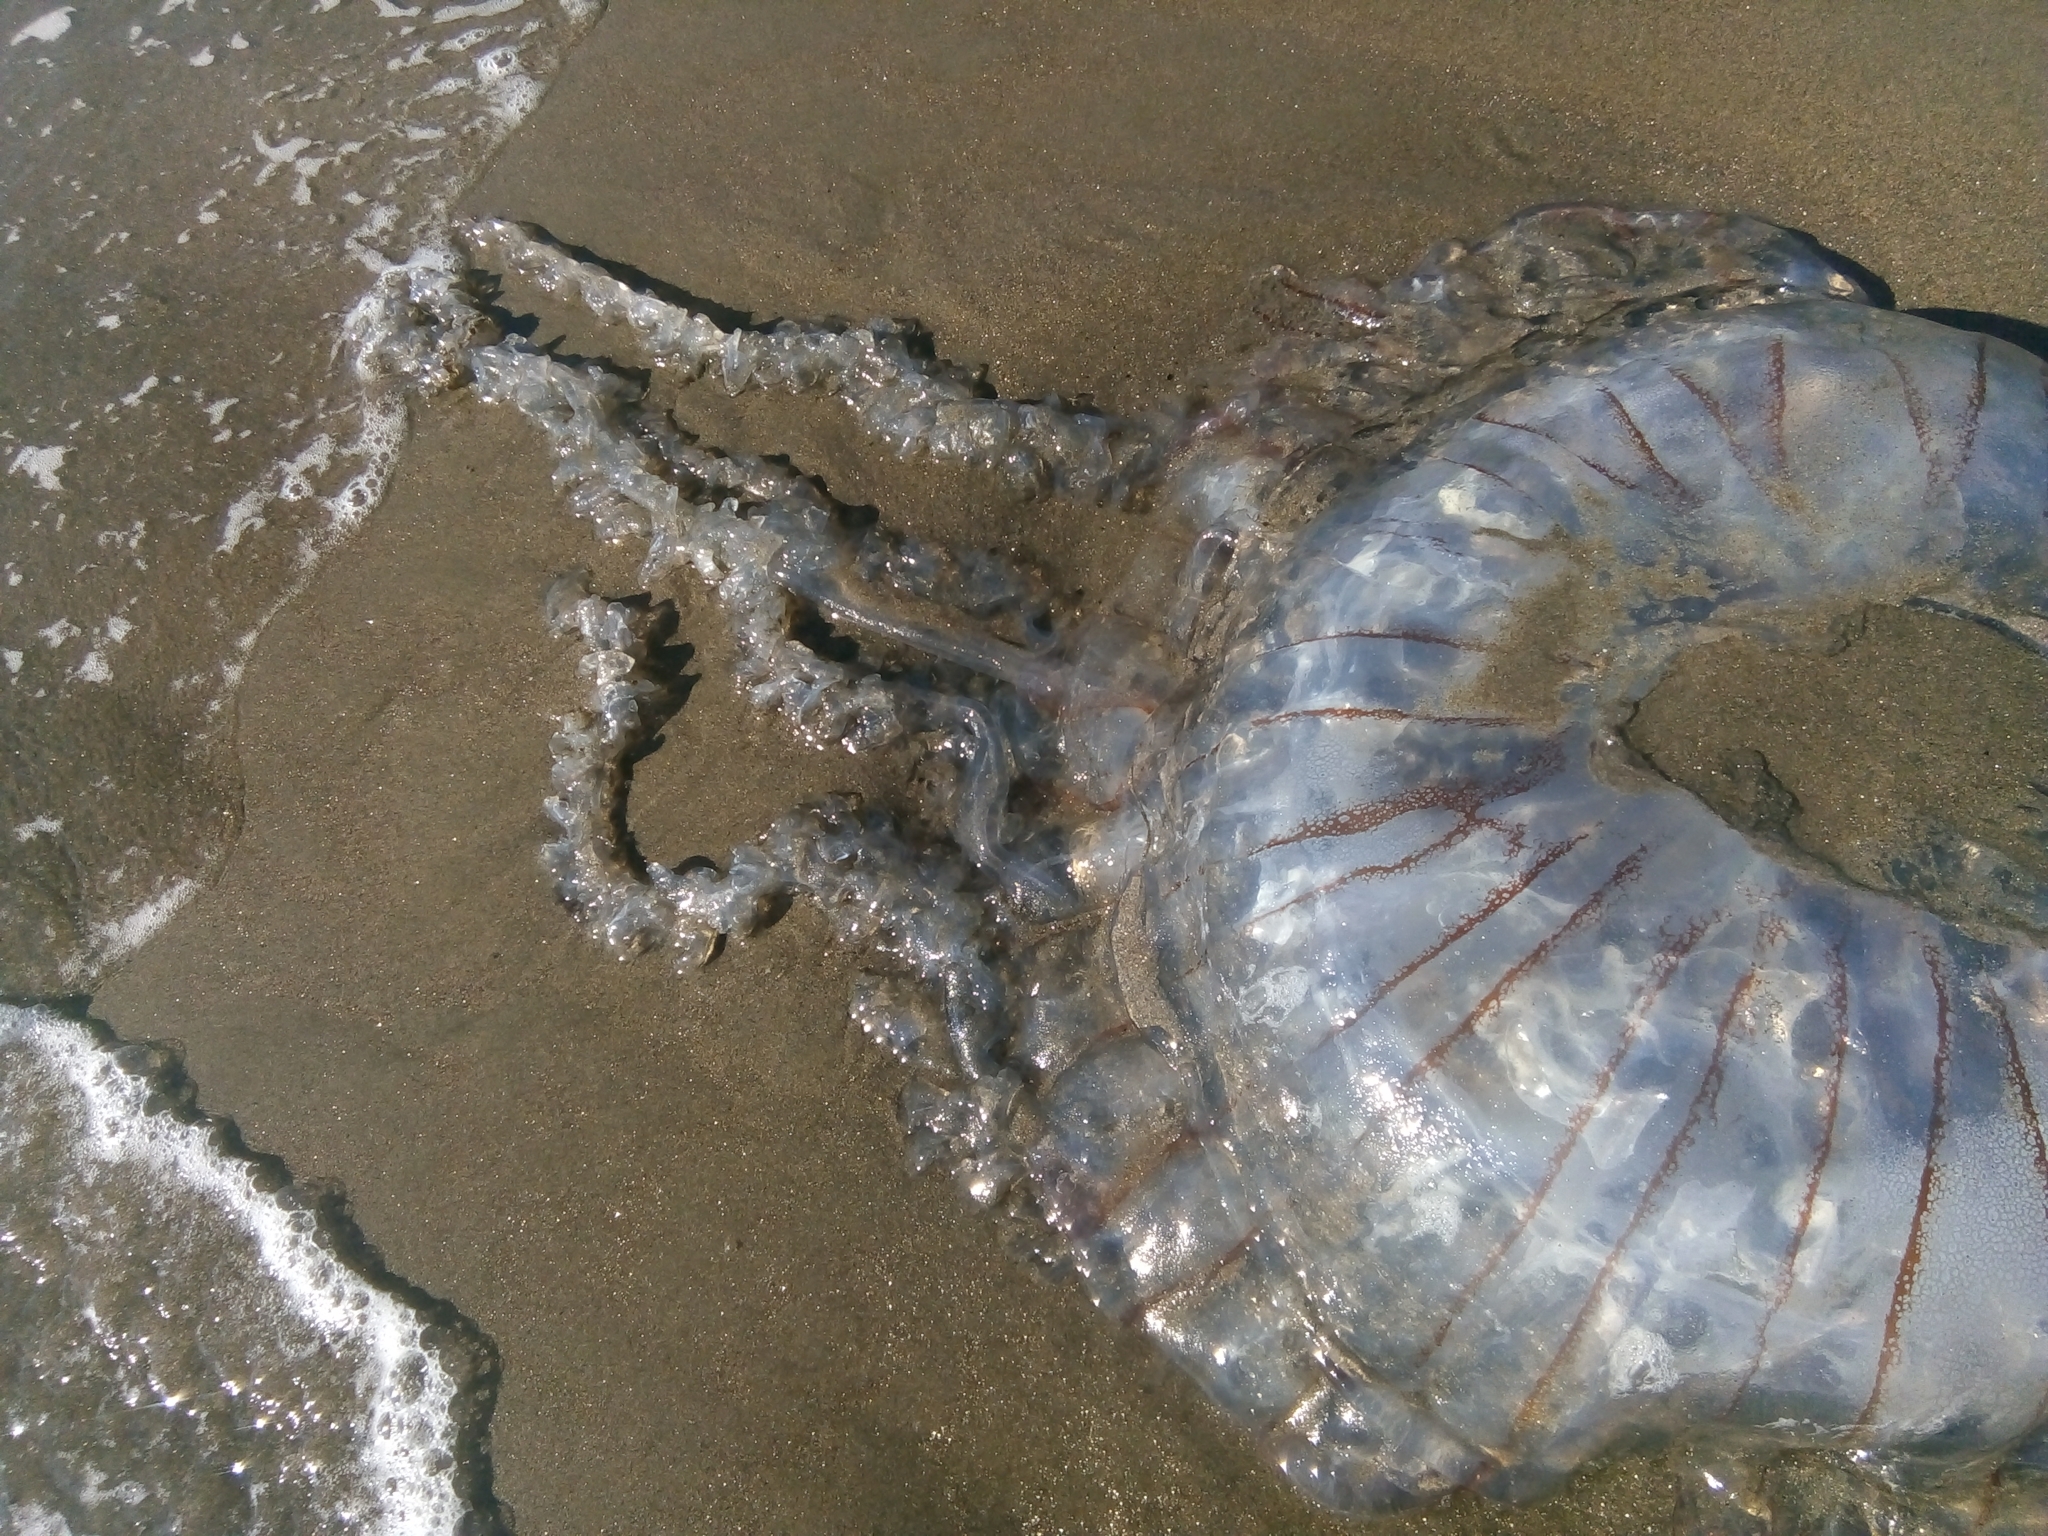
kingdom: Animalia
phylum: Cnidaria
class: Scyphozoa
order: Semaeostomeae
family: Pelagiidae
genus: Chrysaora
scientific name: Chrysaora plocamia
